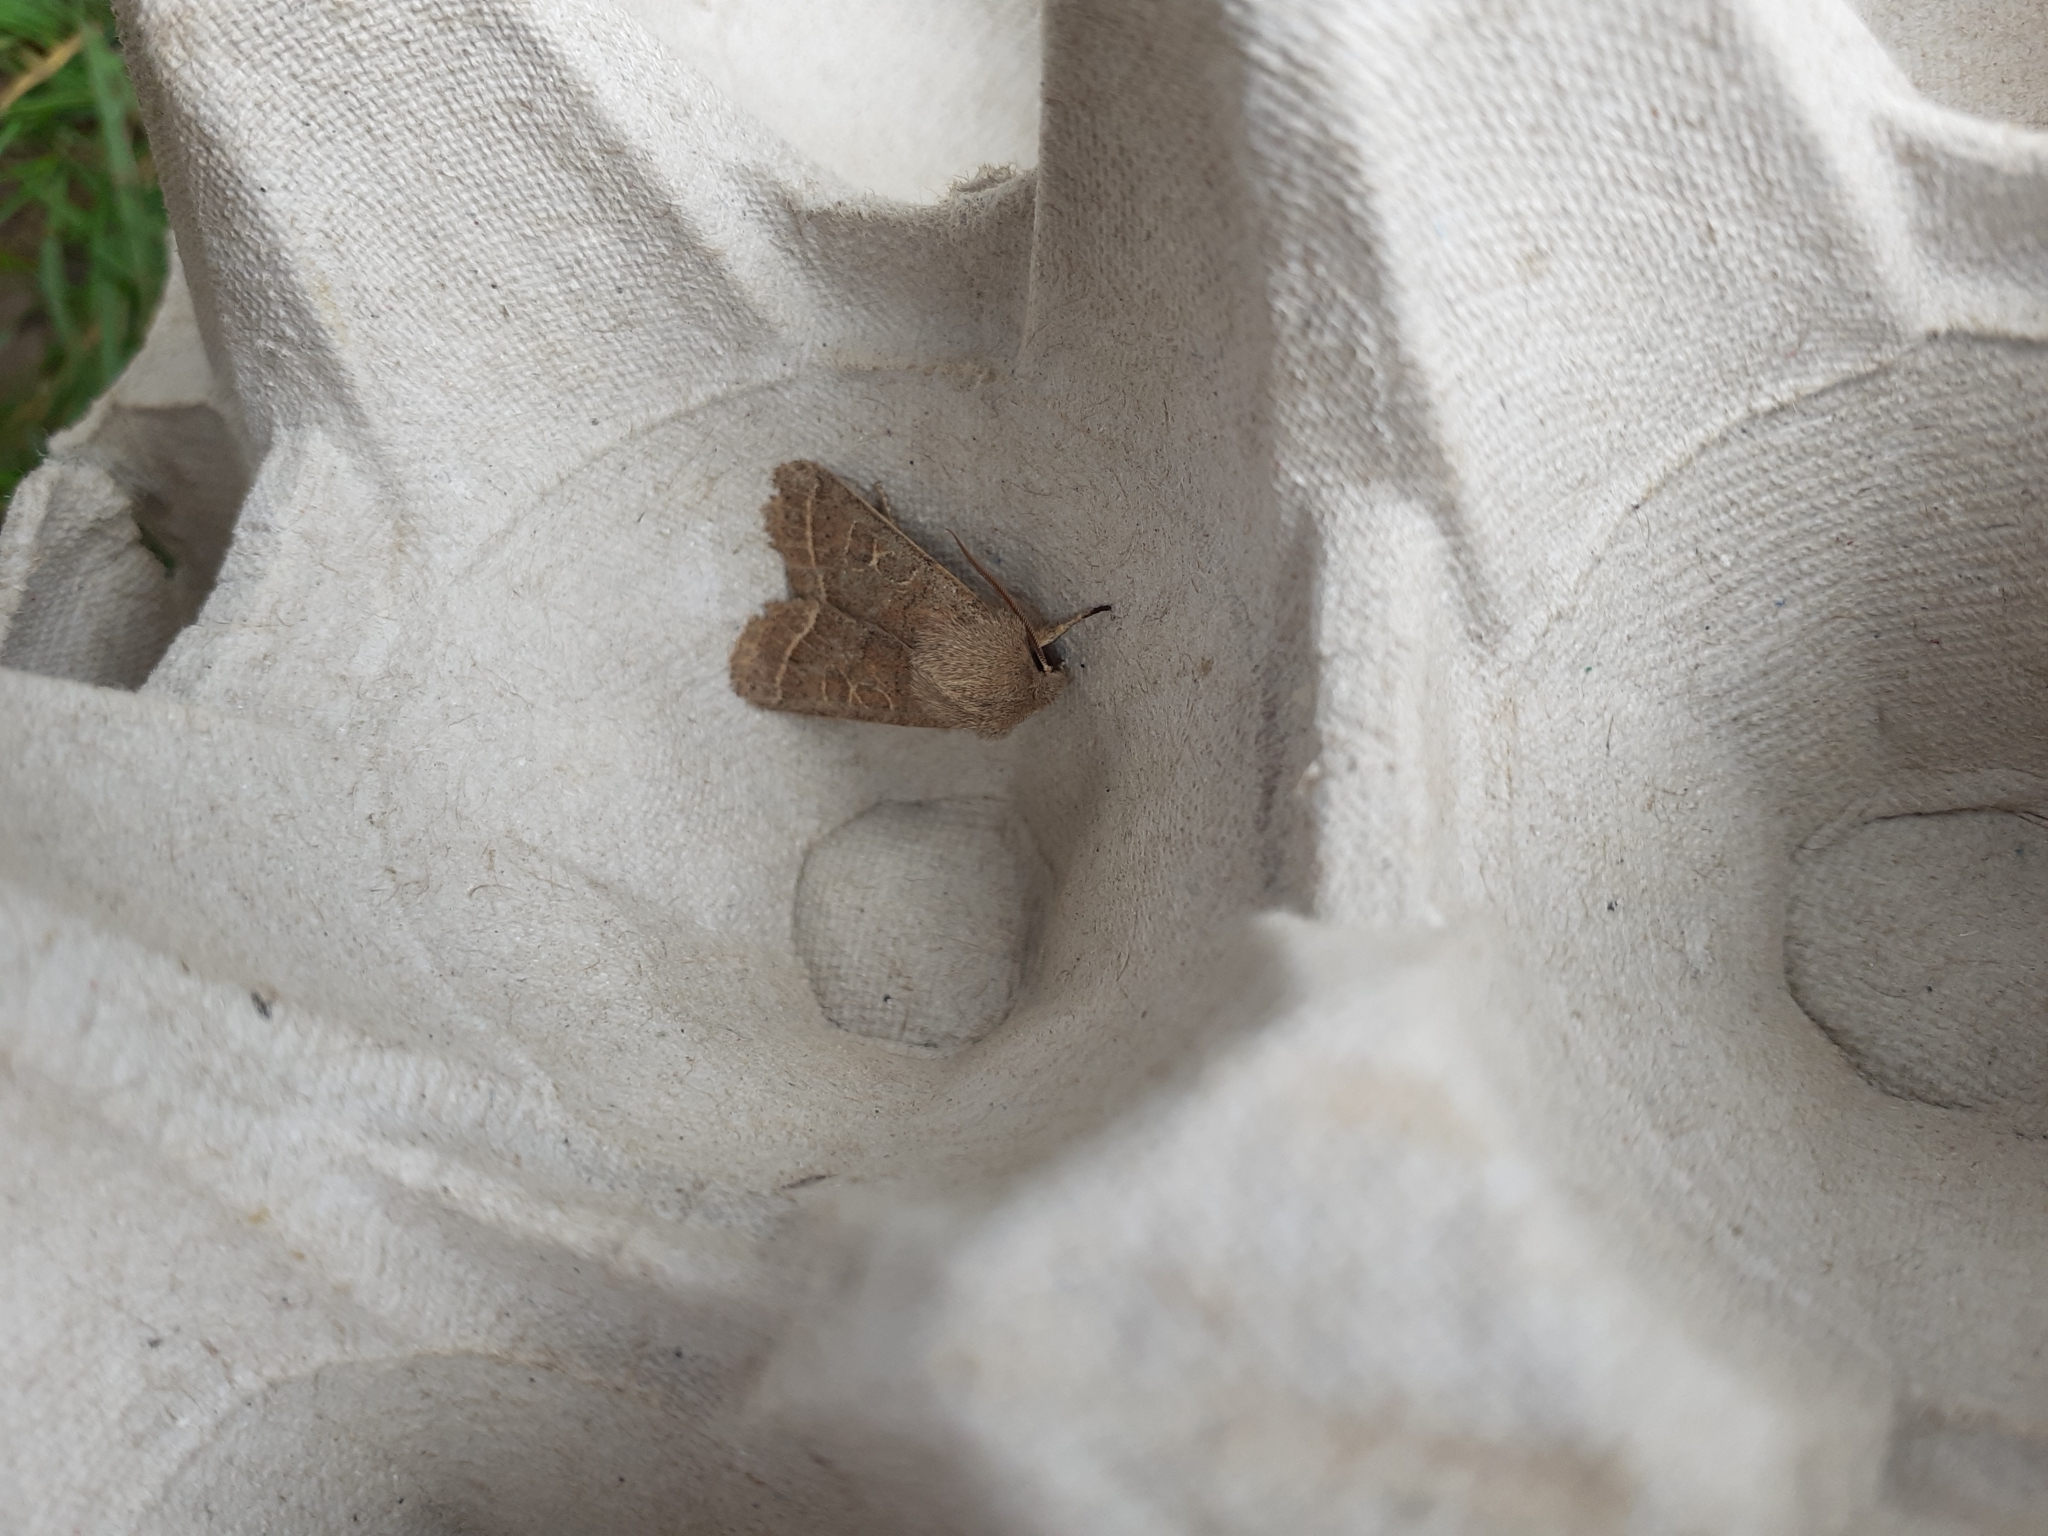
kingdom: Animalia
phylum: Arthropoda
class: Insecta
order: Lepidoptera
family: Noctuidae
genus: Orthosia
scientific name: Orthosia cerasi
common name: Common quaker
